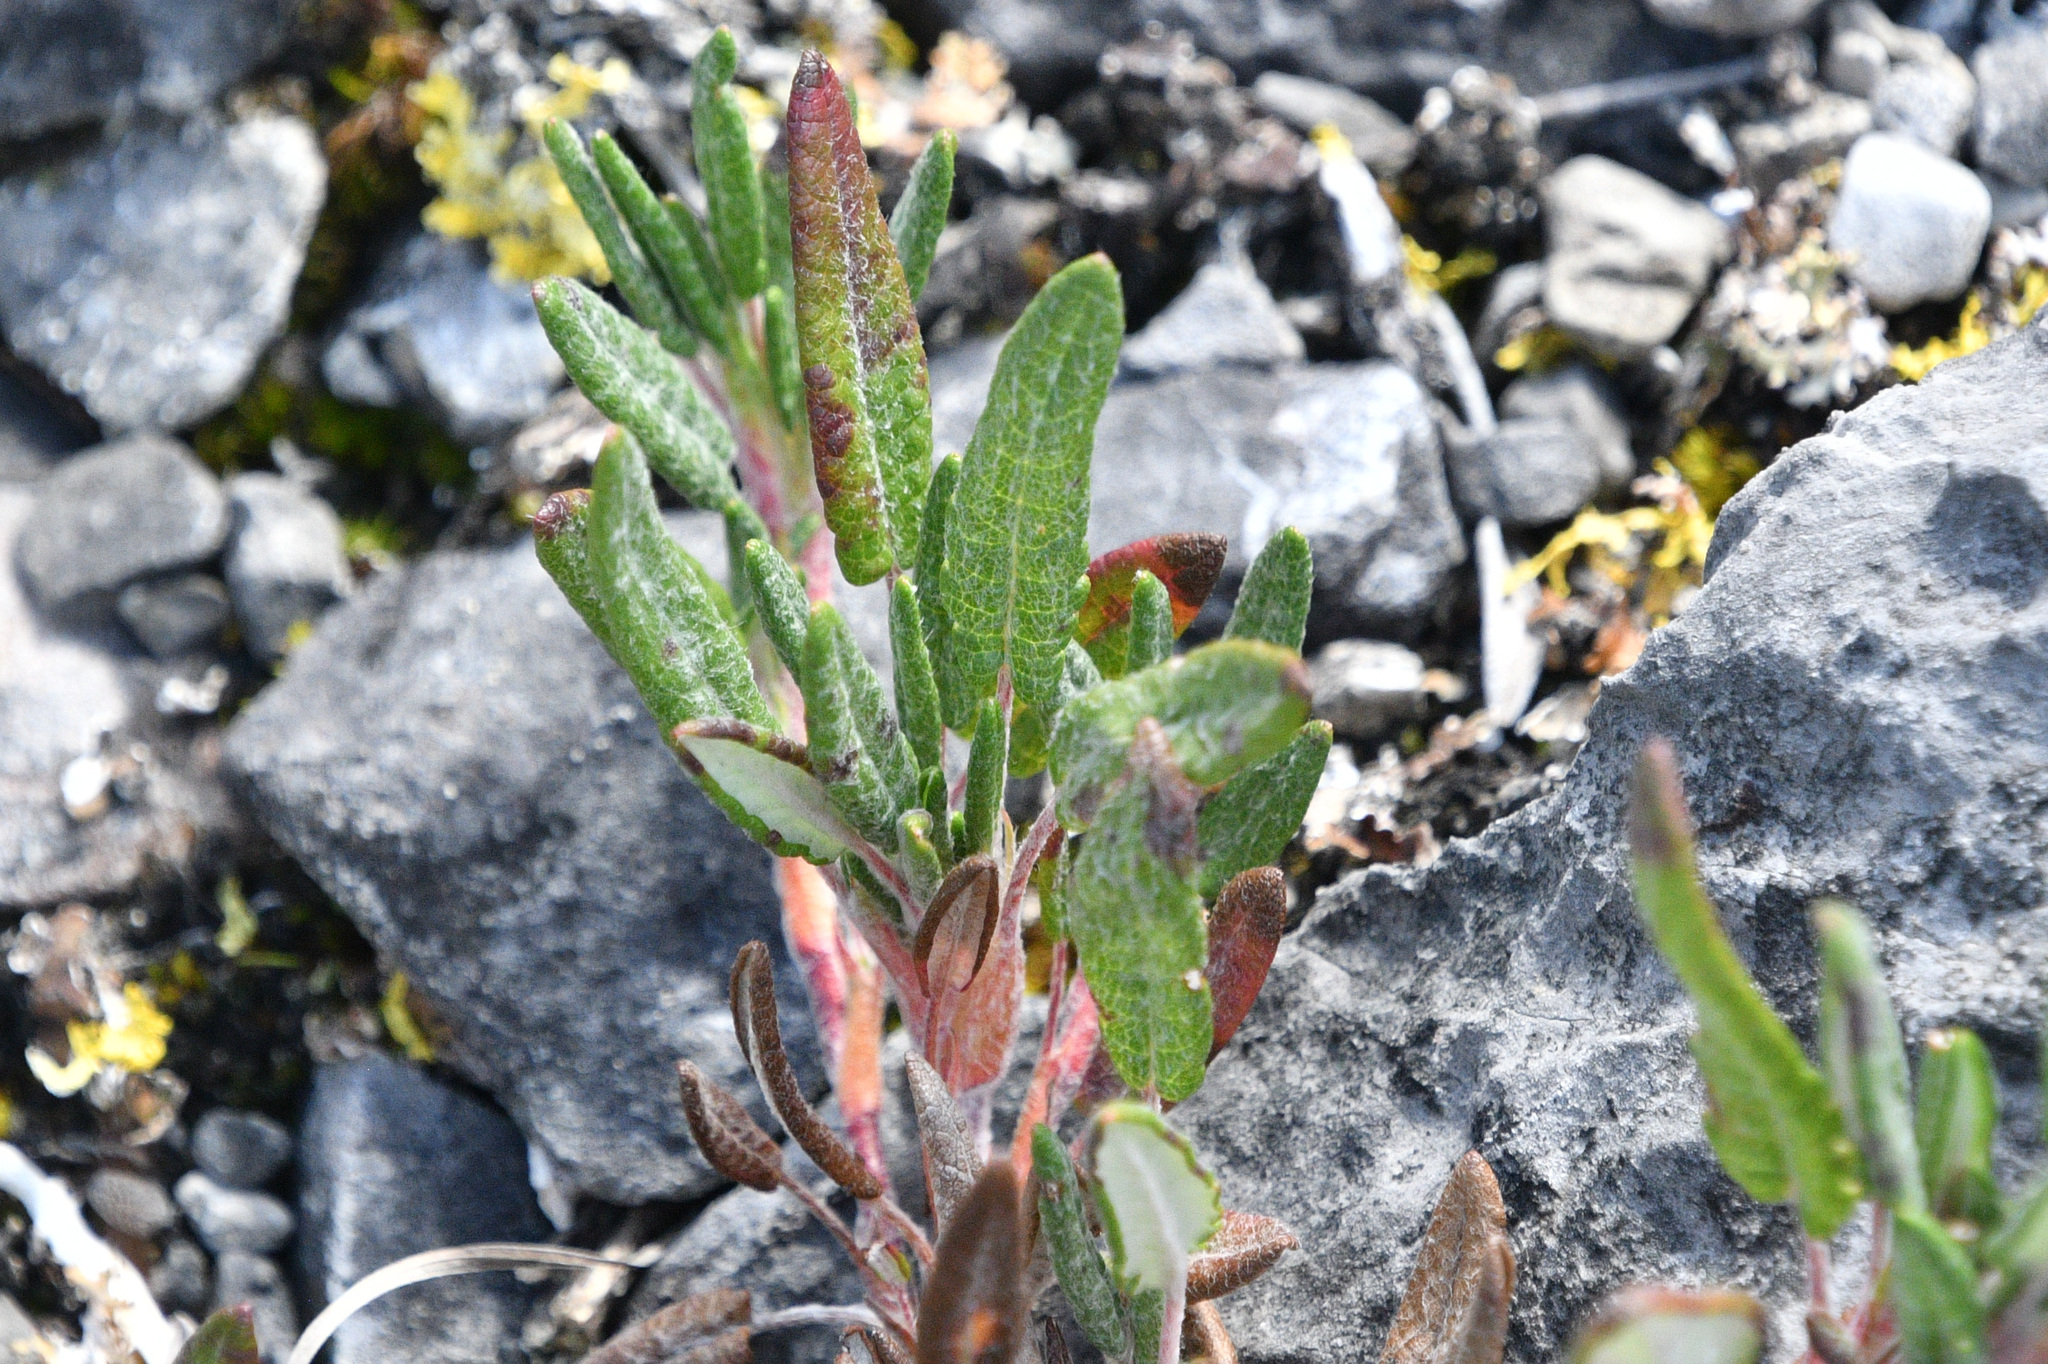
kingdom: Plantae
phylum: Tracheophyta
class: Magnoliopsida
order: Rosales
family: Rosaceae
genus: Dryas
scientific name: Dryas integrifolia
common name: Entire-leaved mountain avens
